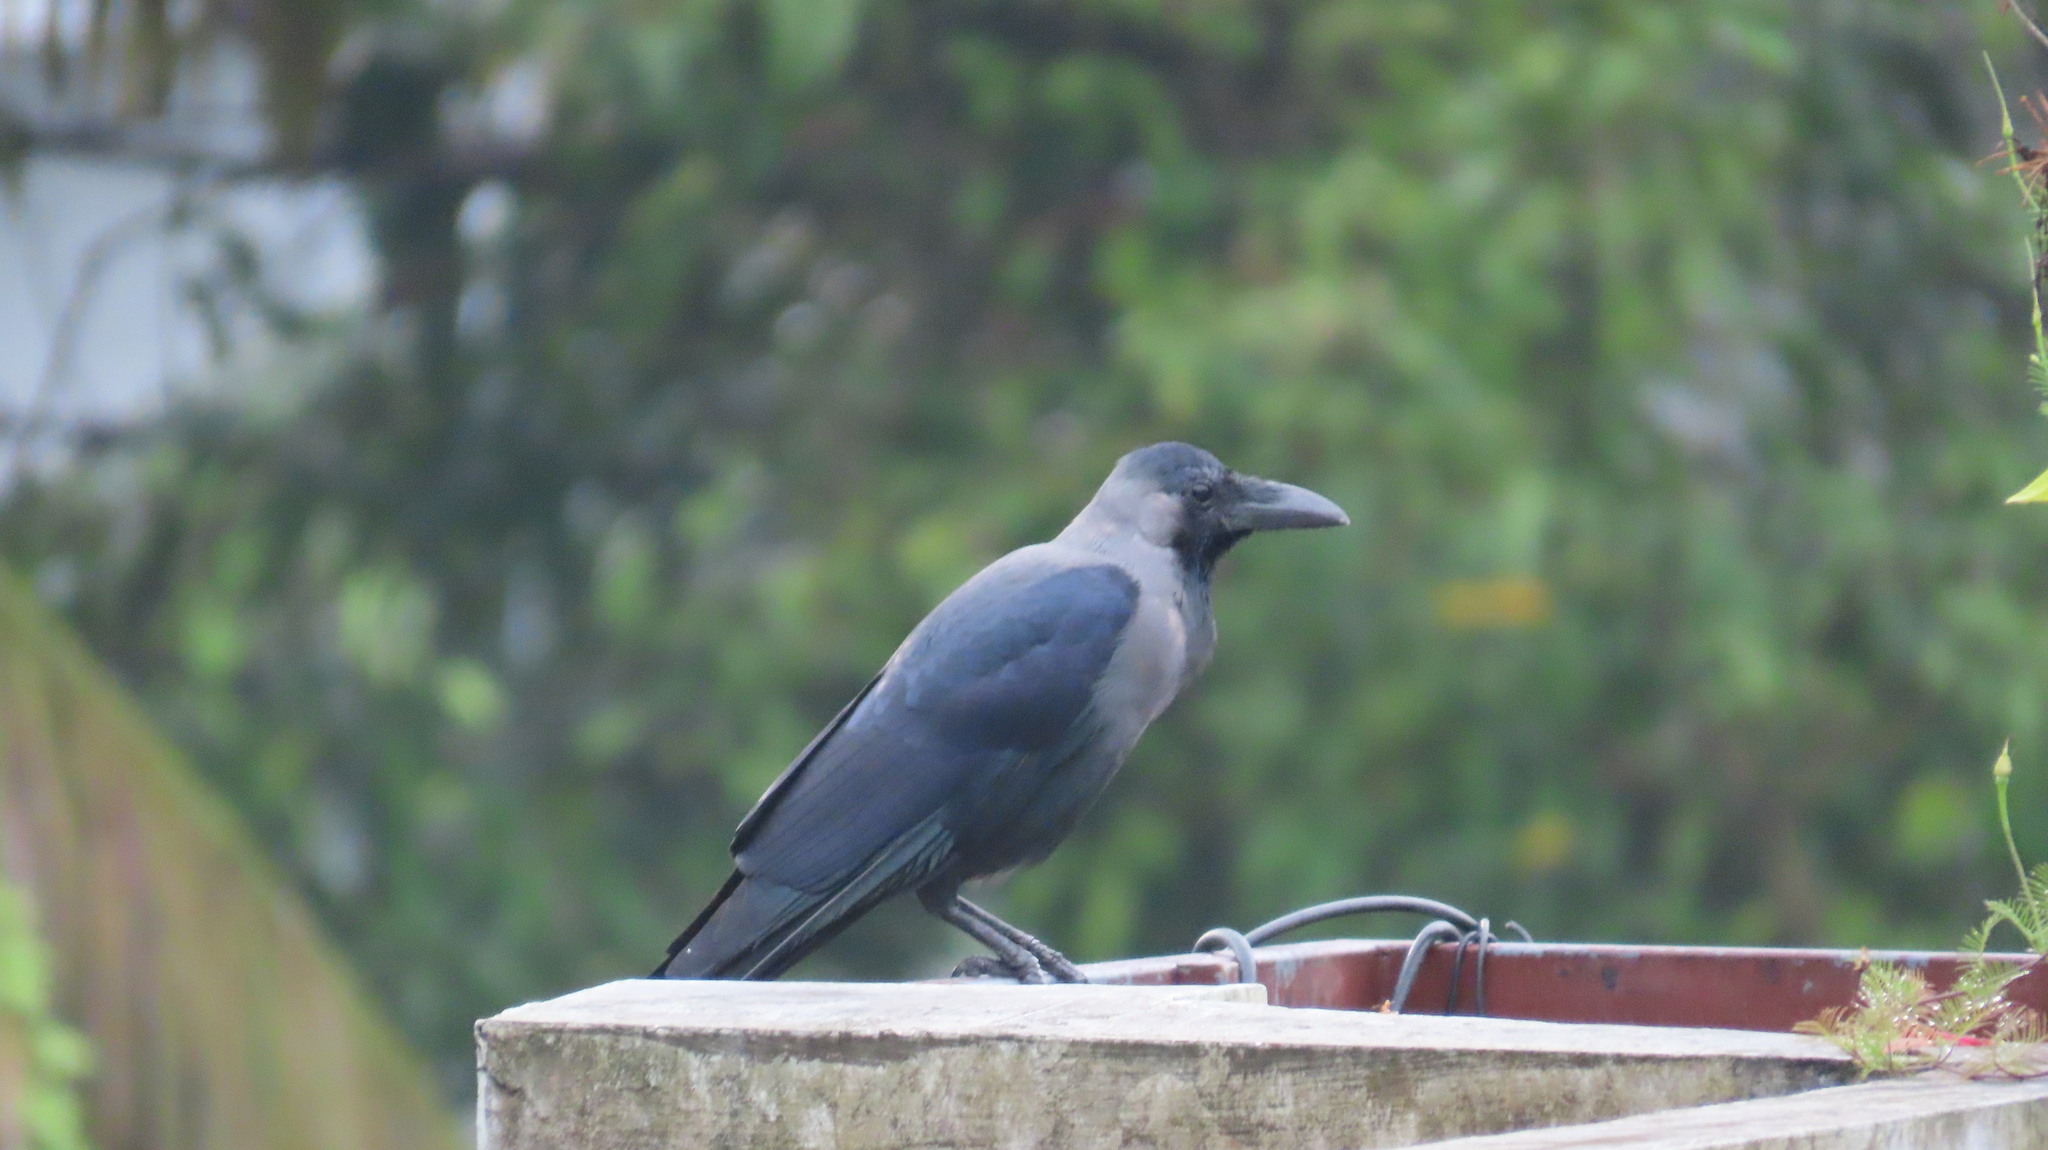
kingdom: Animalia
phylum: Chordata
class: Aves
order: Passeriformes
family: Corvidae
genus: Corvus
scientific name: Corvus splendens
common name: House crow
